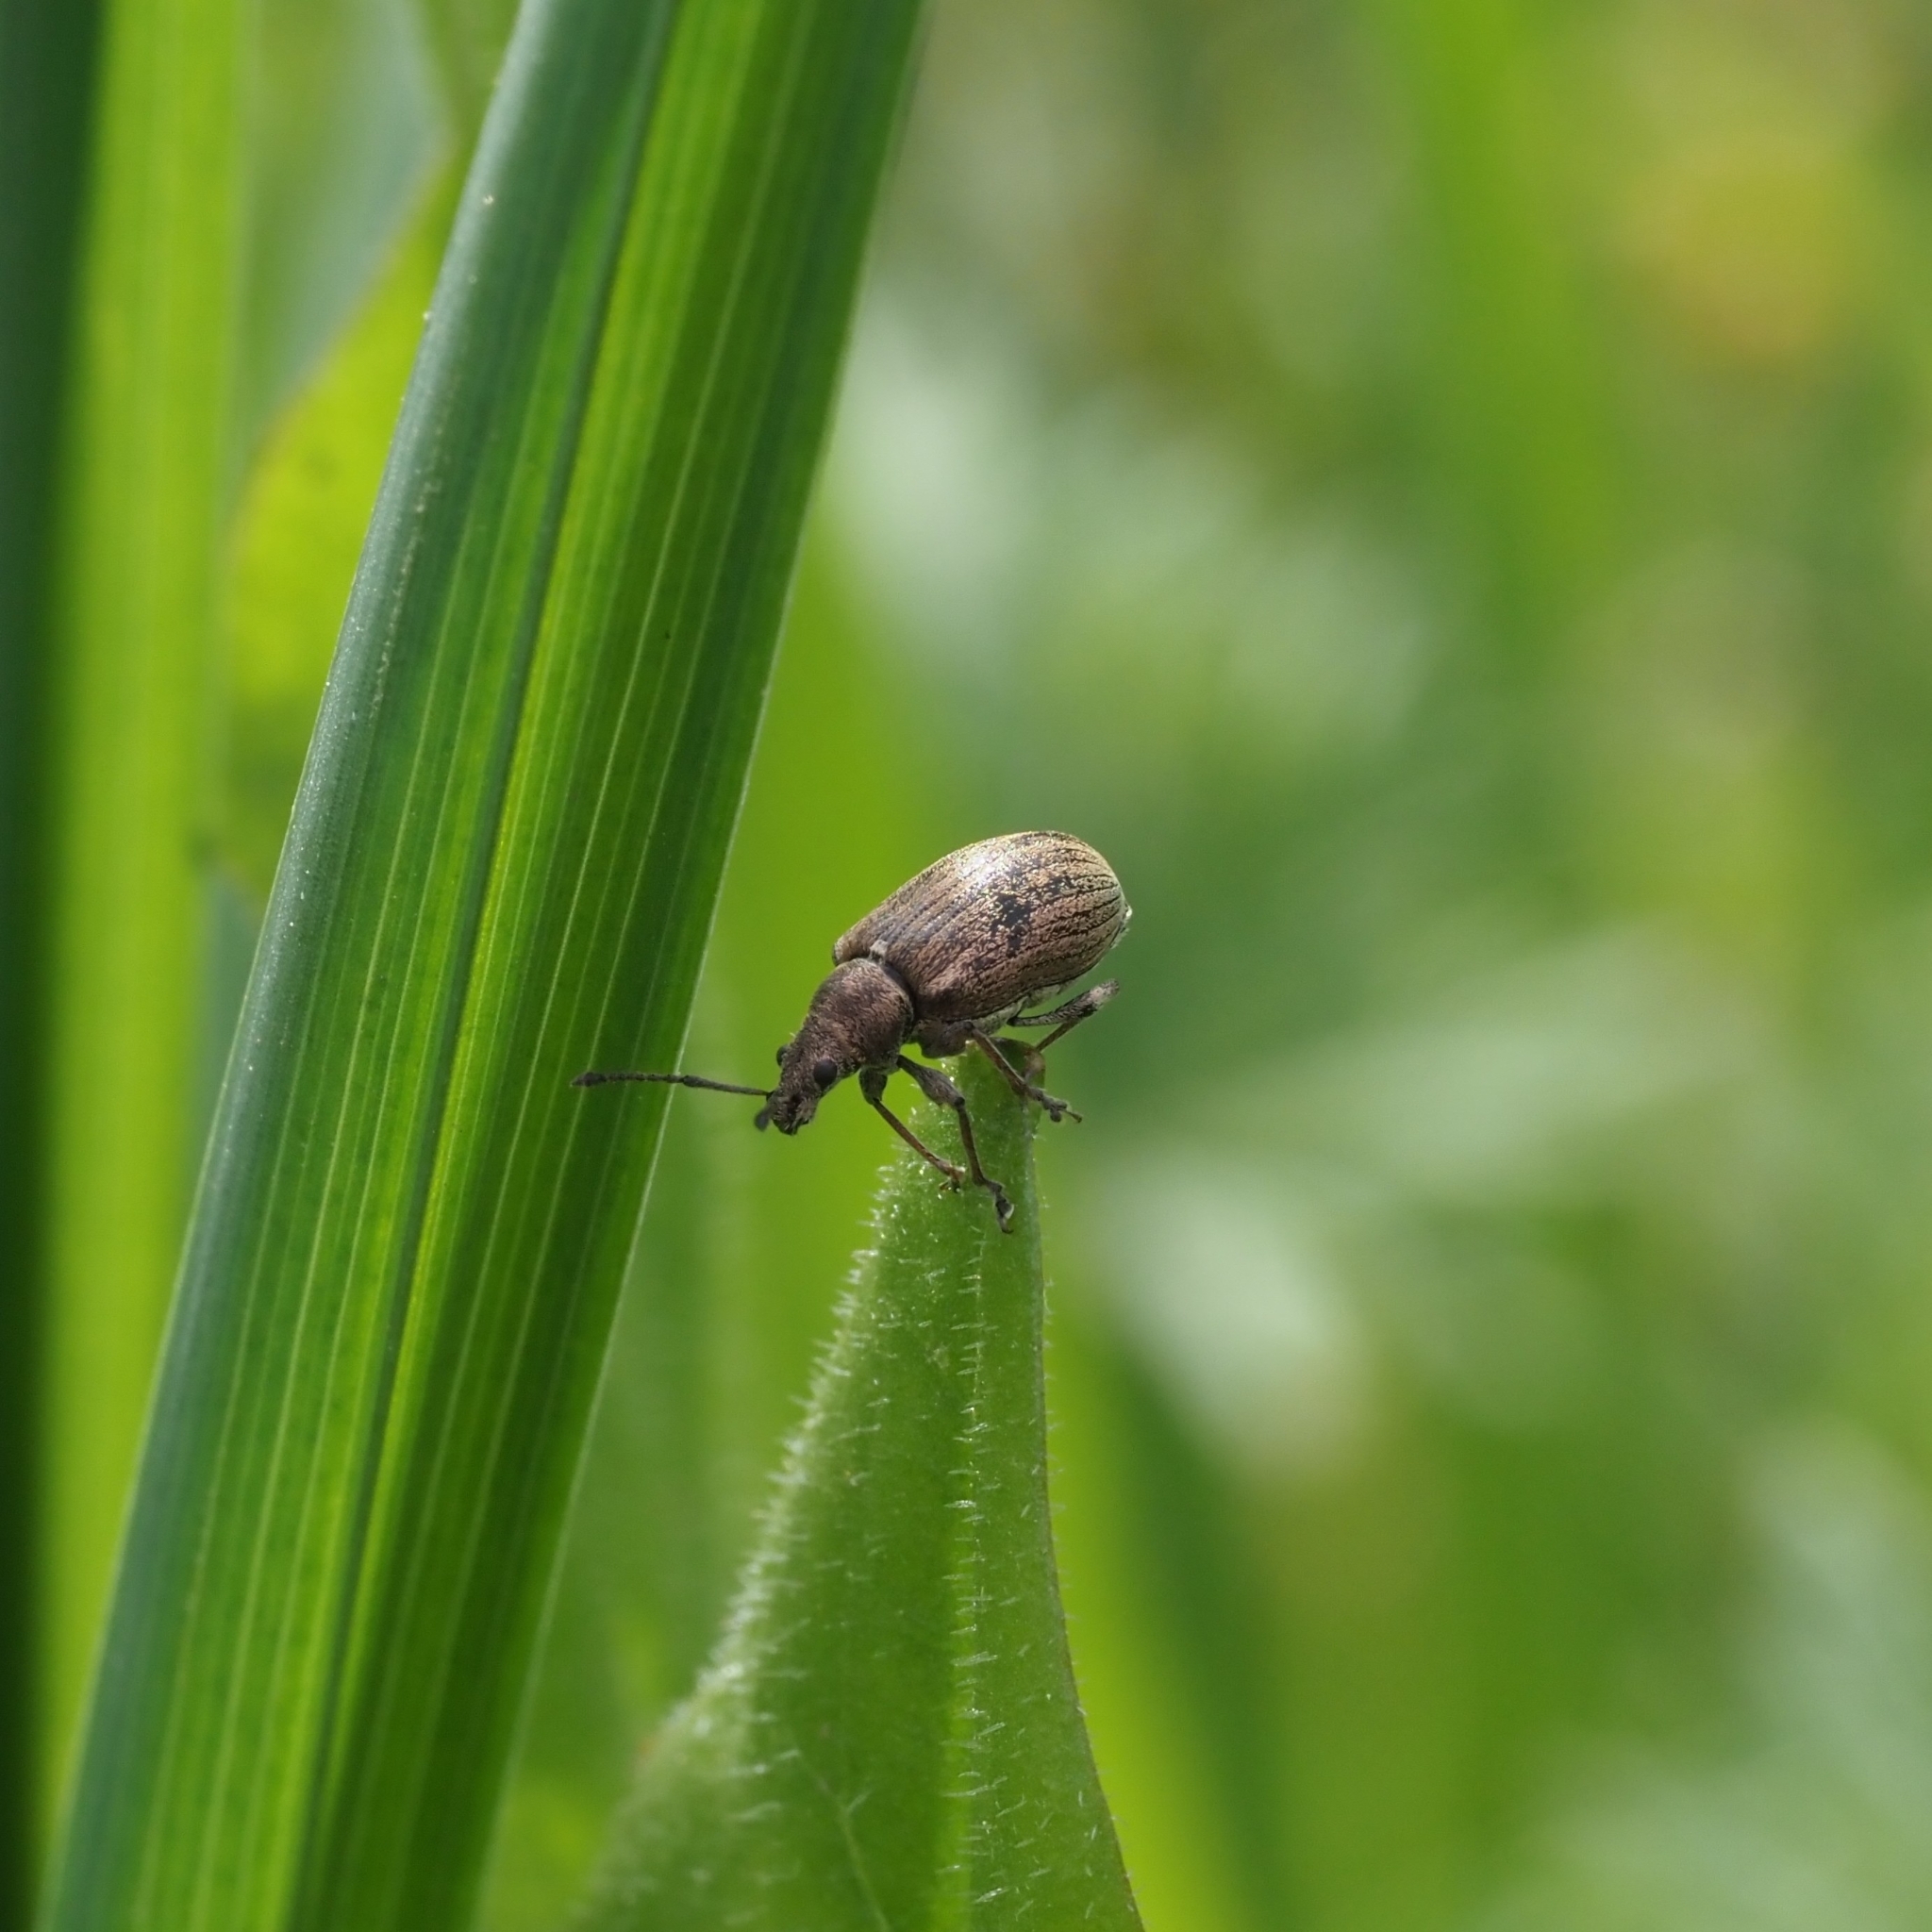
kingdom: Animalia
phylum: Arthropoda
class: Insecta
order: Coleoptera
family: Curculionidae
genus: Phyllobius
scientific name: Phyllobius pyri
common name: Common leaf weevil
